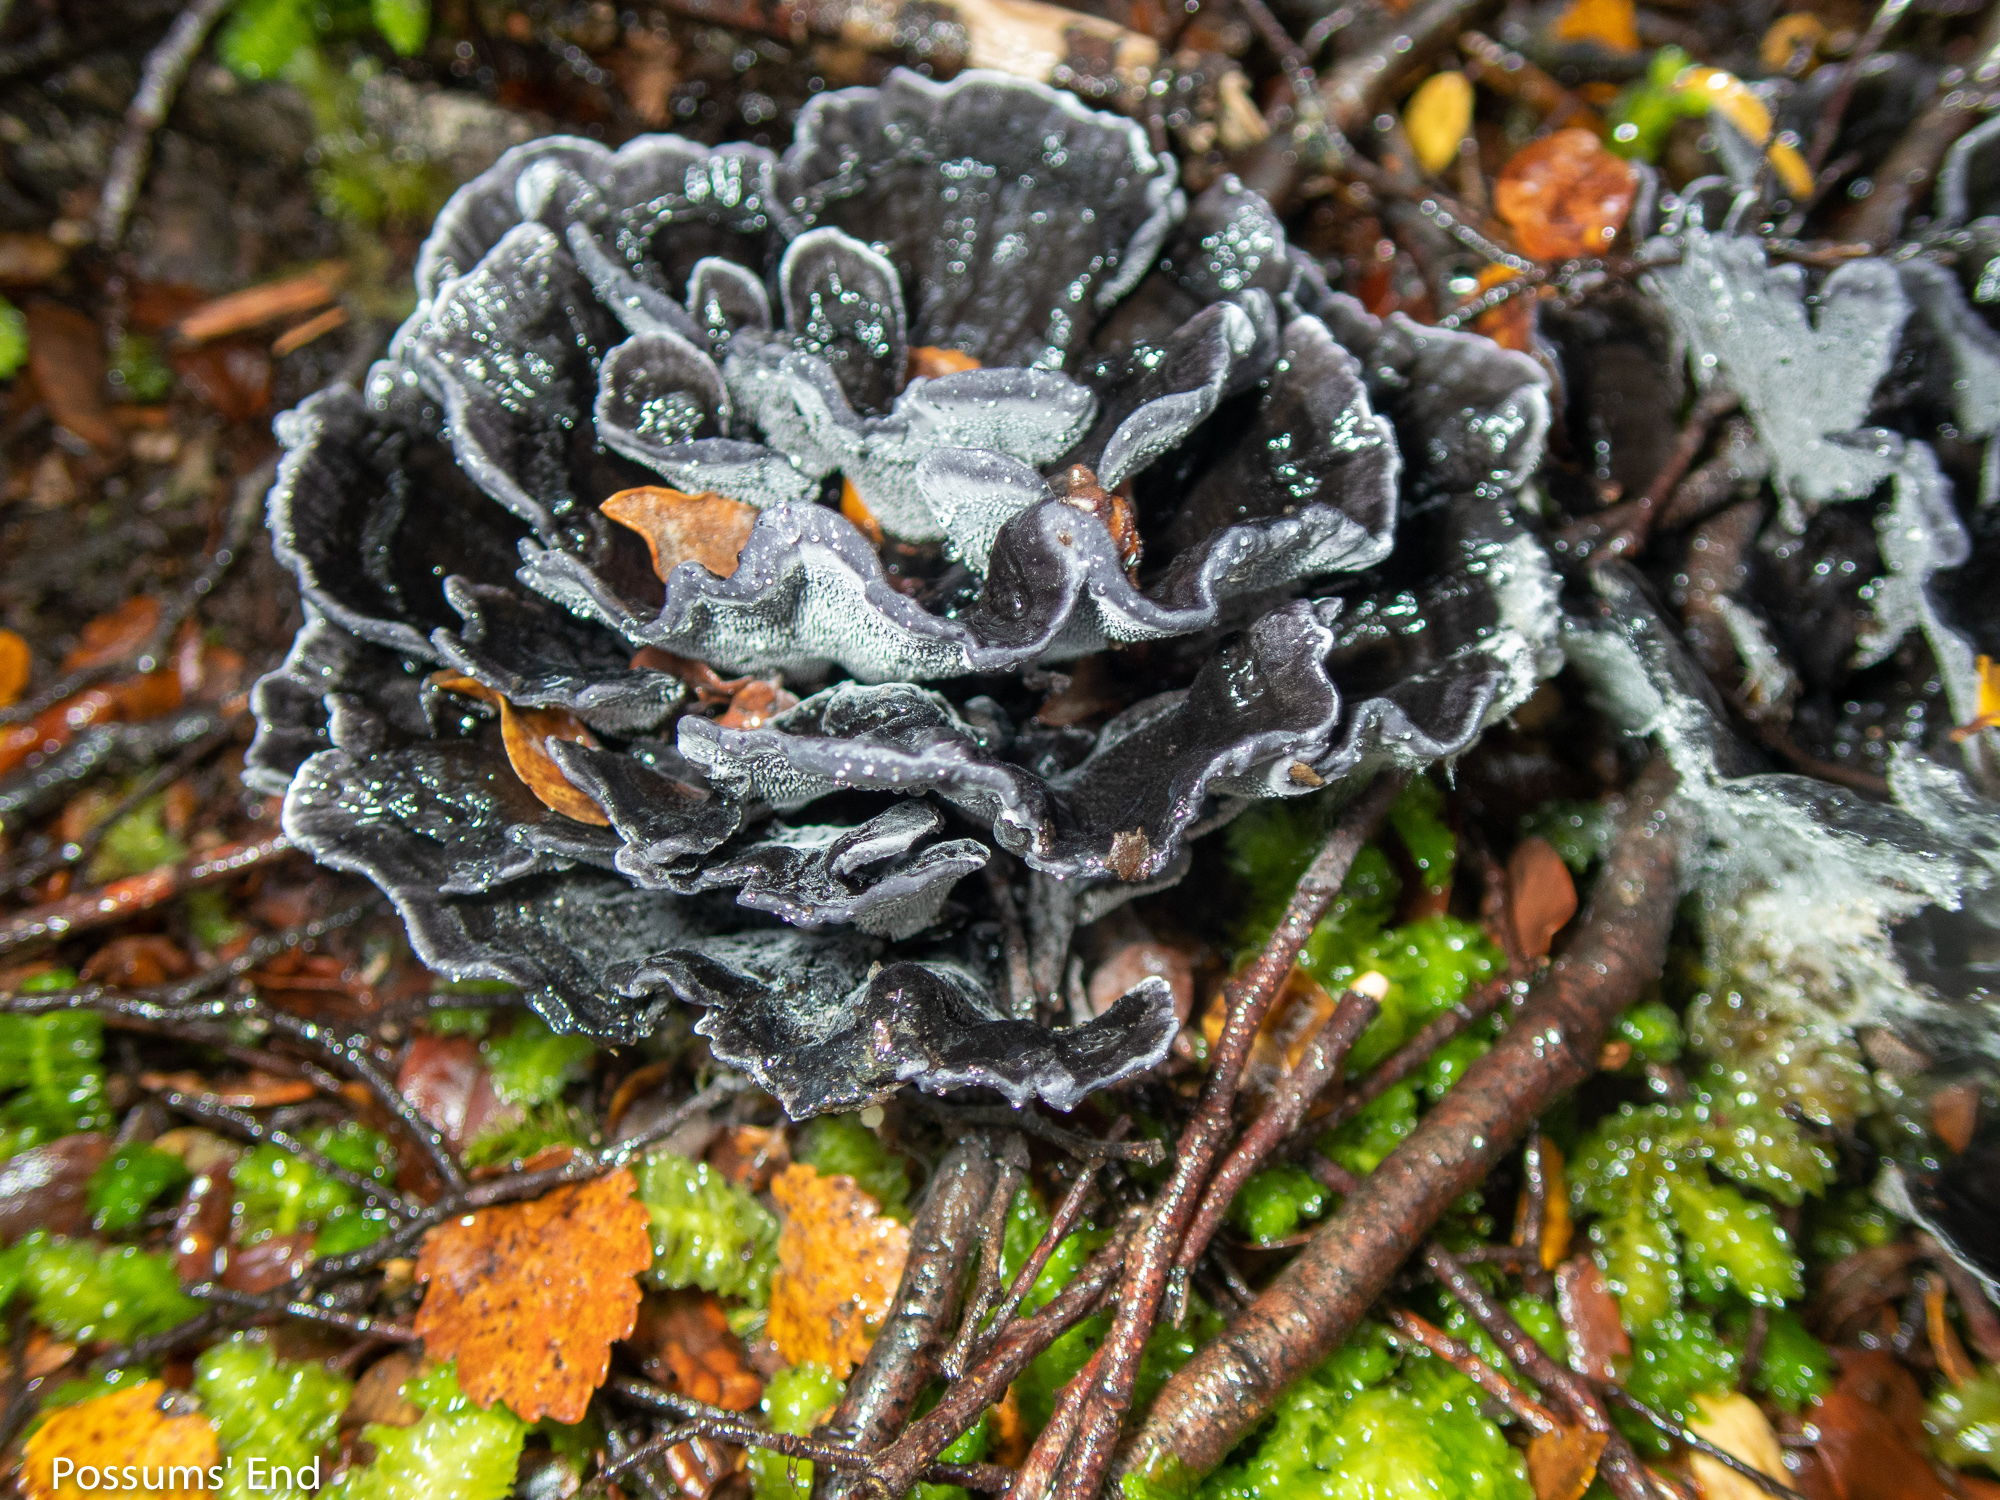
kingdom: Fungi
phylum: Basidiomycota
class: Agaricomycetes
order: Thelephorales
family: Thelephoraceae
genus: Phellodon
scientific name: Phellodon sinclairii
